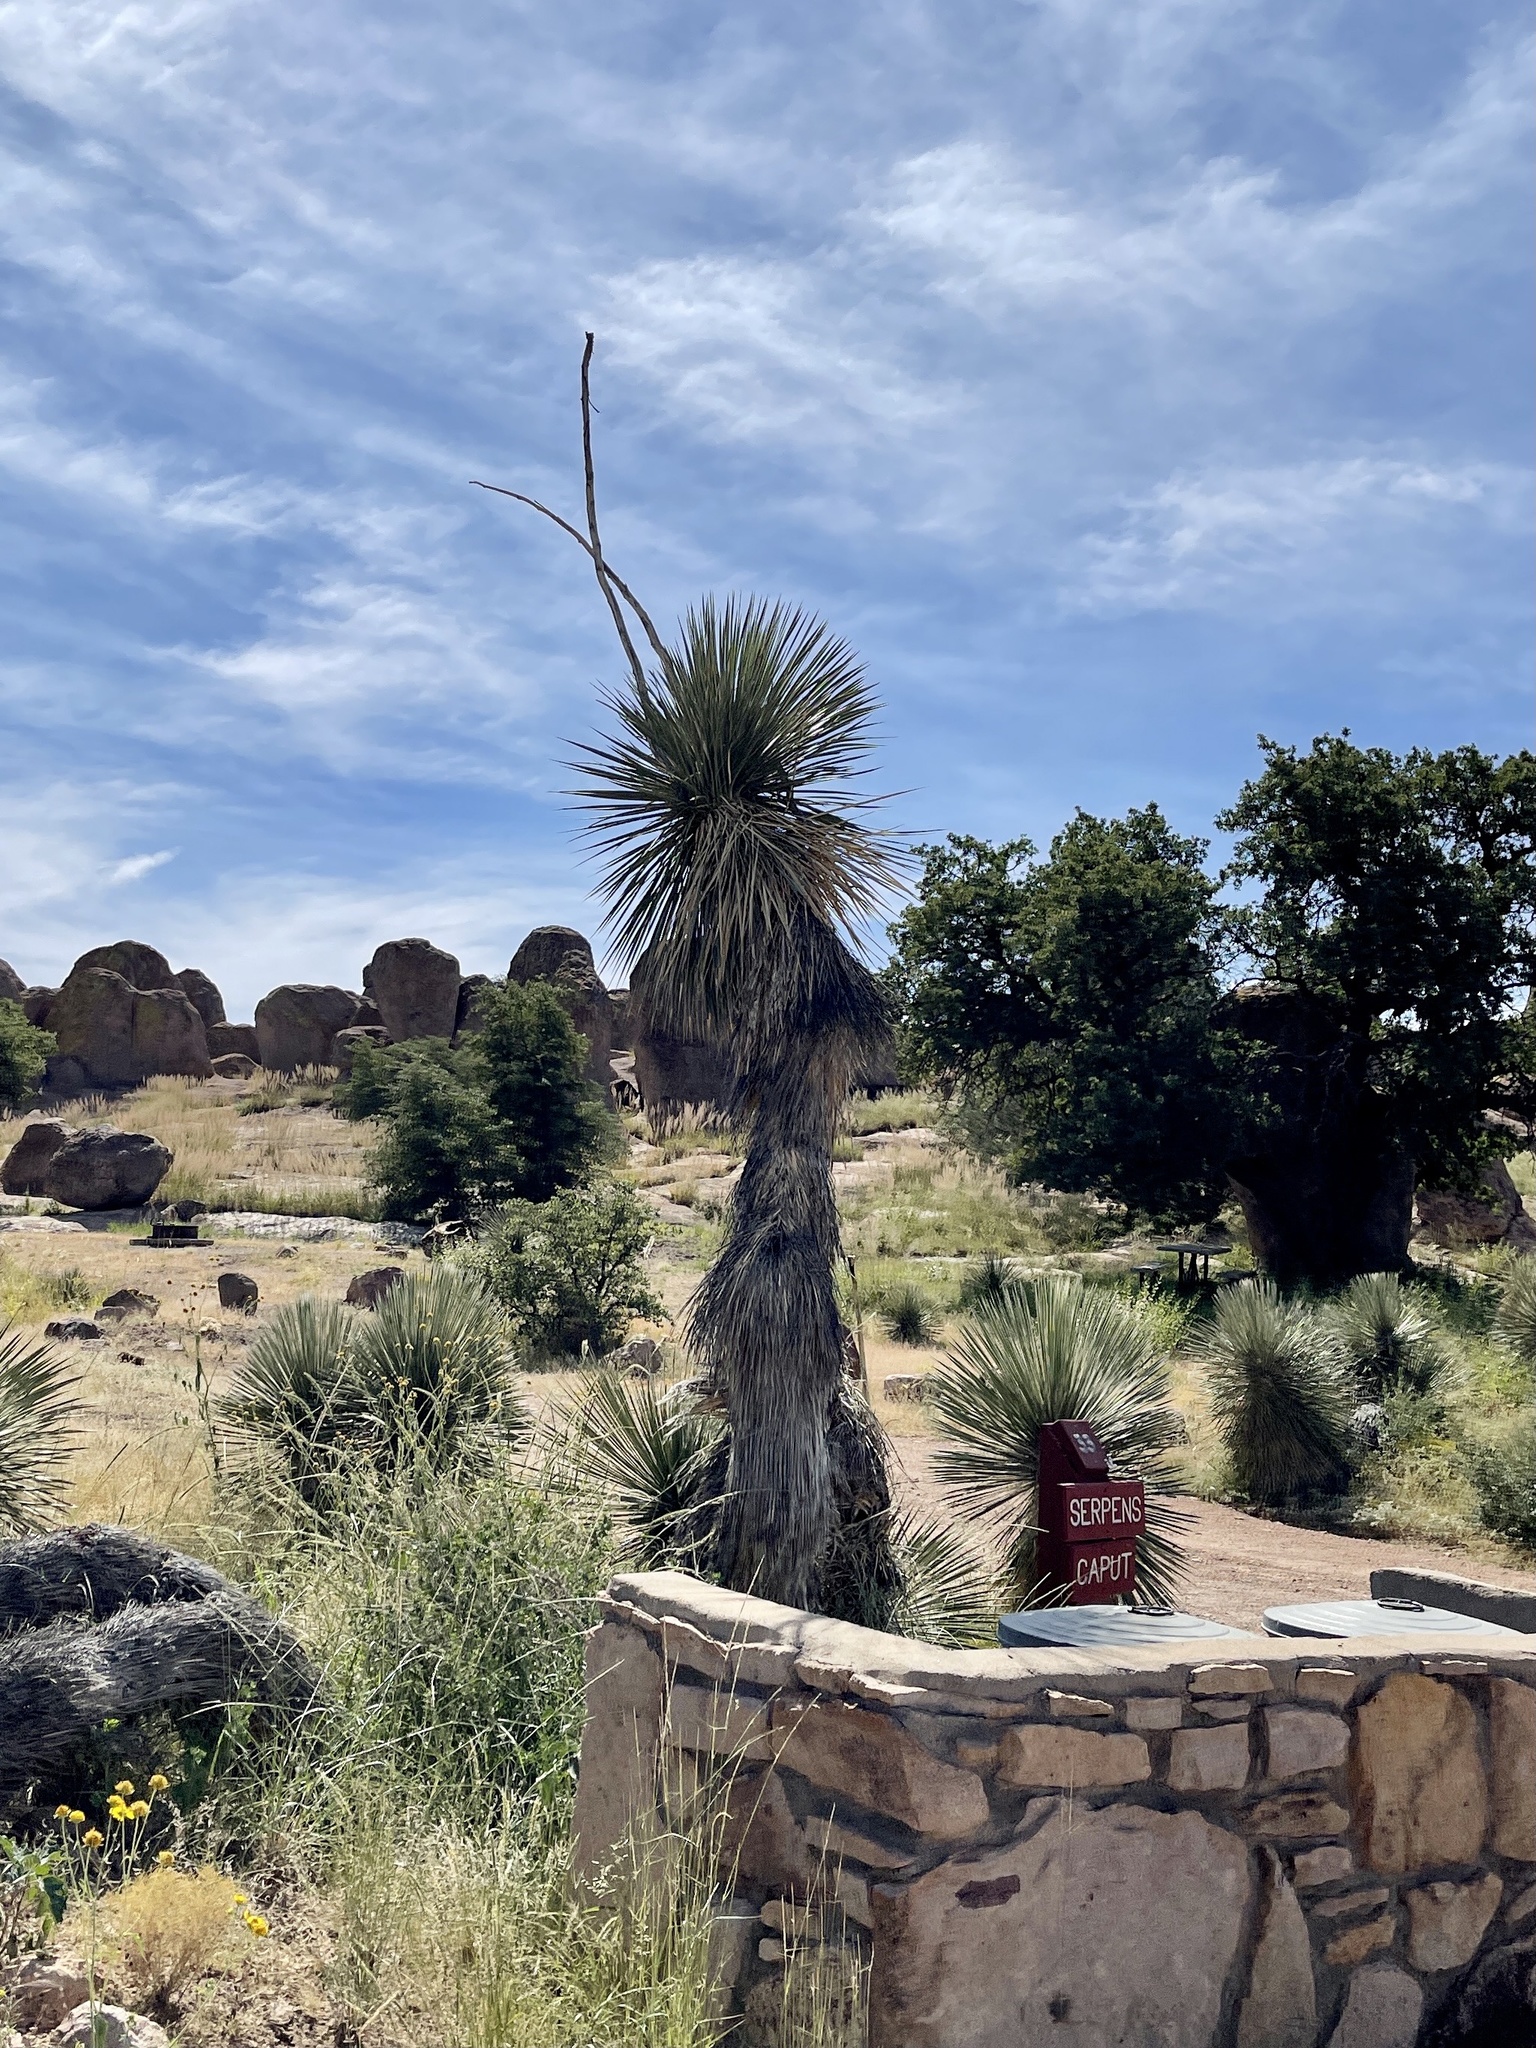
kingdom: Plantae
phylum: Tracheophyta
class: Liliopsida
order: Asparagales
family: Asparagaceae
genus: Yucca
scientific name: Yucca elata
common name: Palmella
